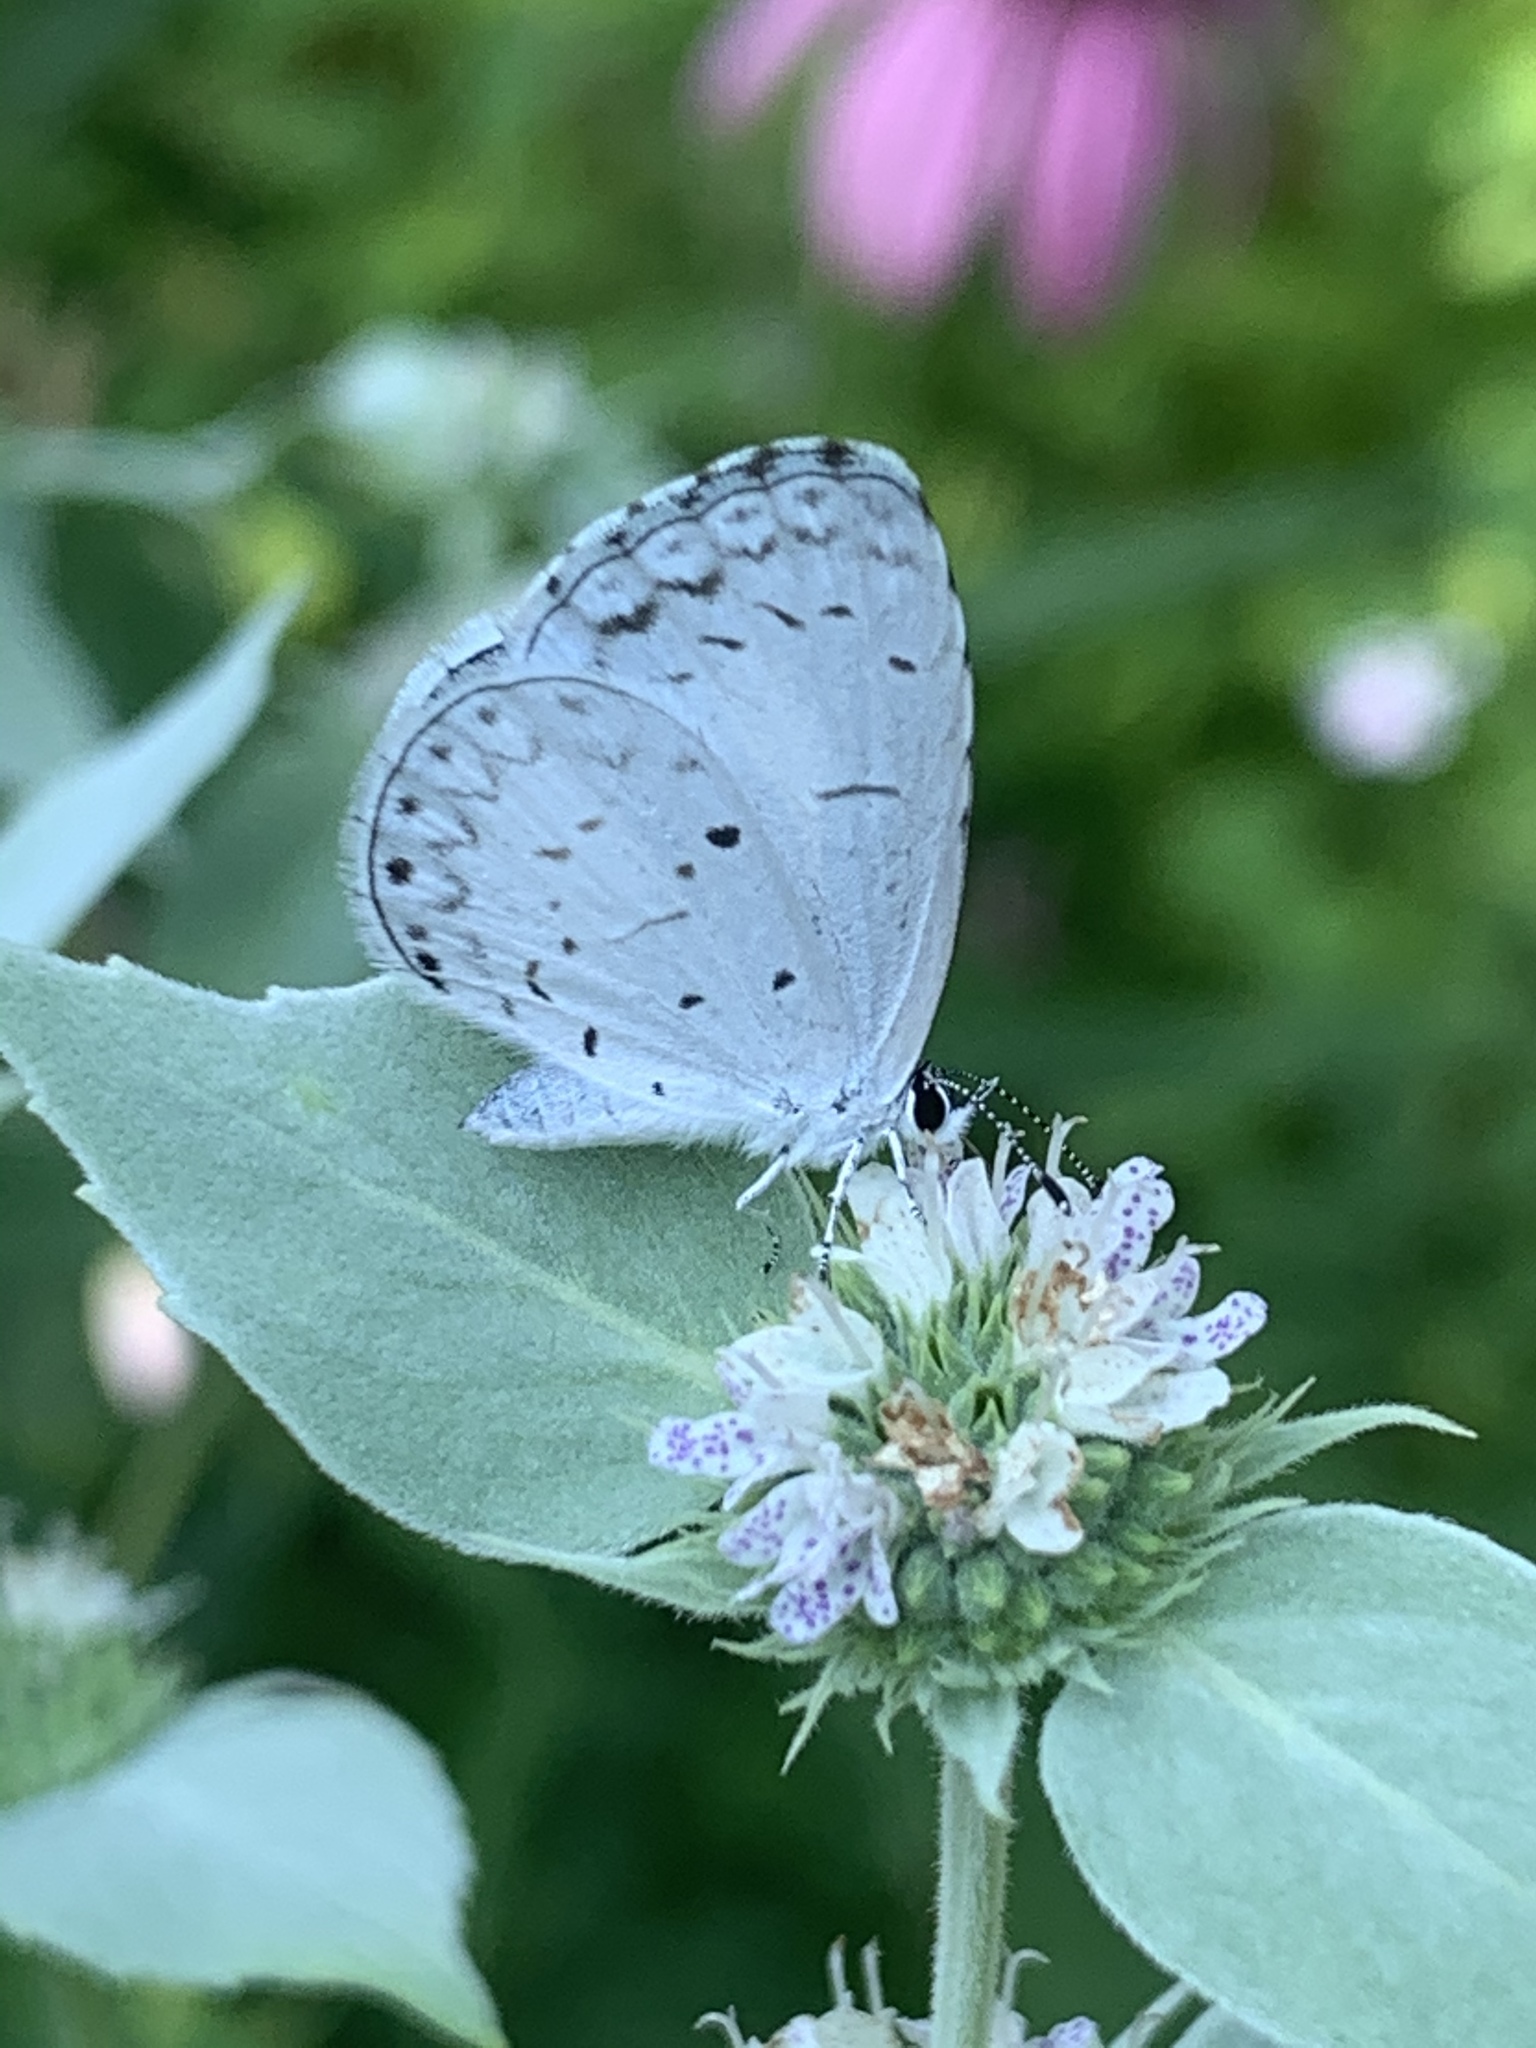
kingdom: Animalia
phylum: Arthropoda
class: Insecta
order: Lepidoptera
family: Lycaenidae
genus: Cyaniris
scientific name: Cyaniris neglecta
